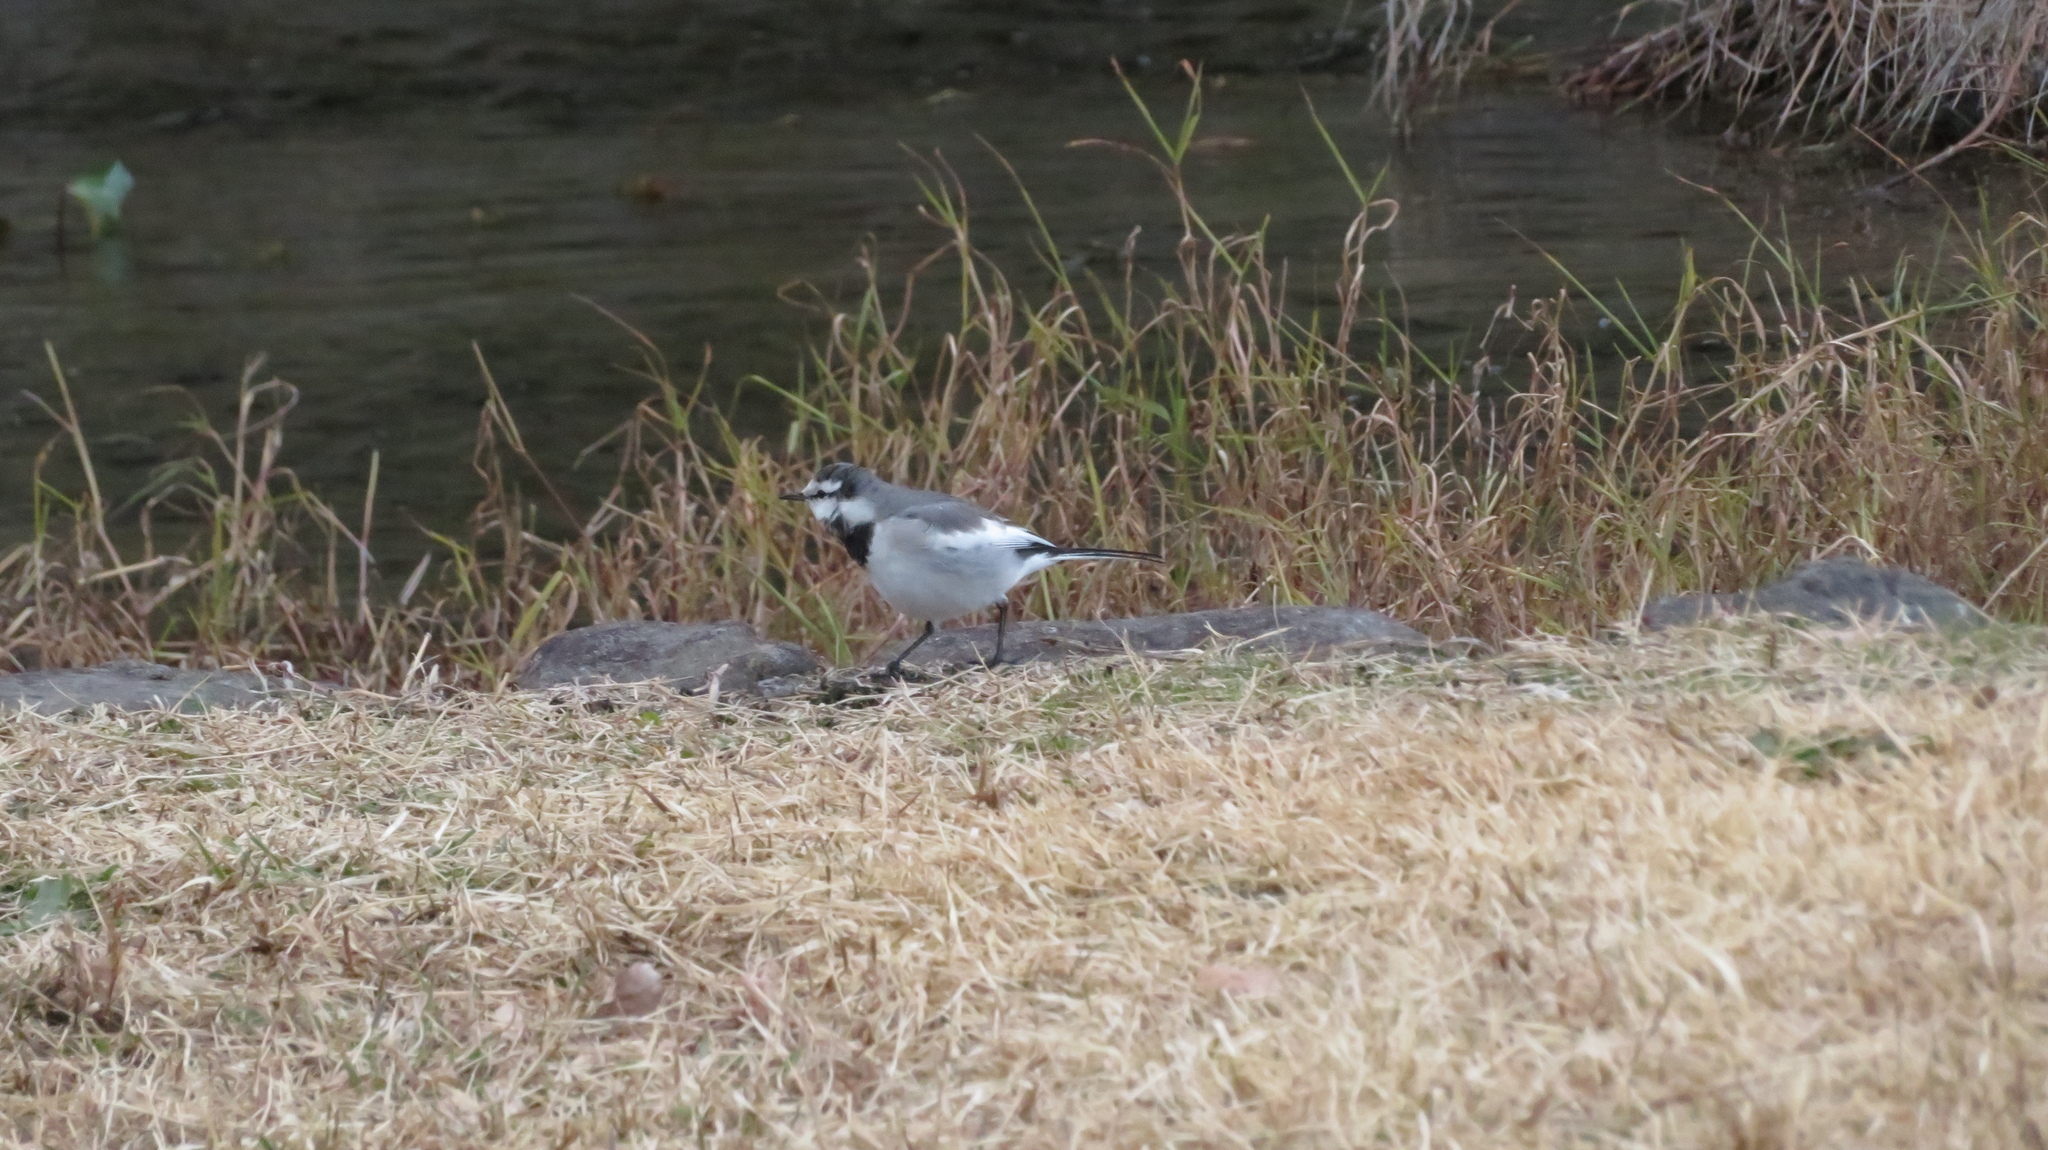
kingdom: Animalia
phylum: Chordata
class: Aves
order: Passeriformes
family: Motacillidae
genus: Motacilla
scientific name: Motacilla alba
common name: White wagtail
